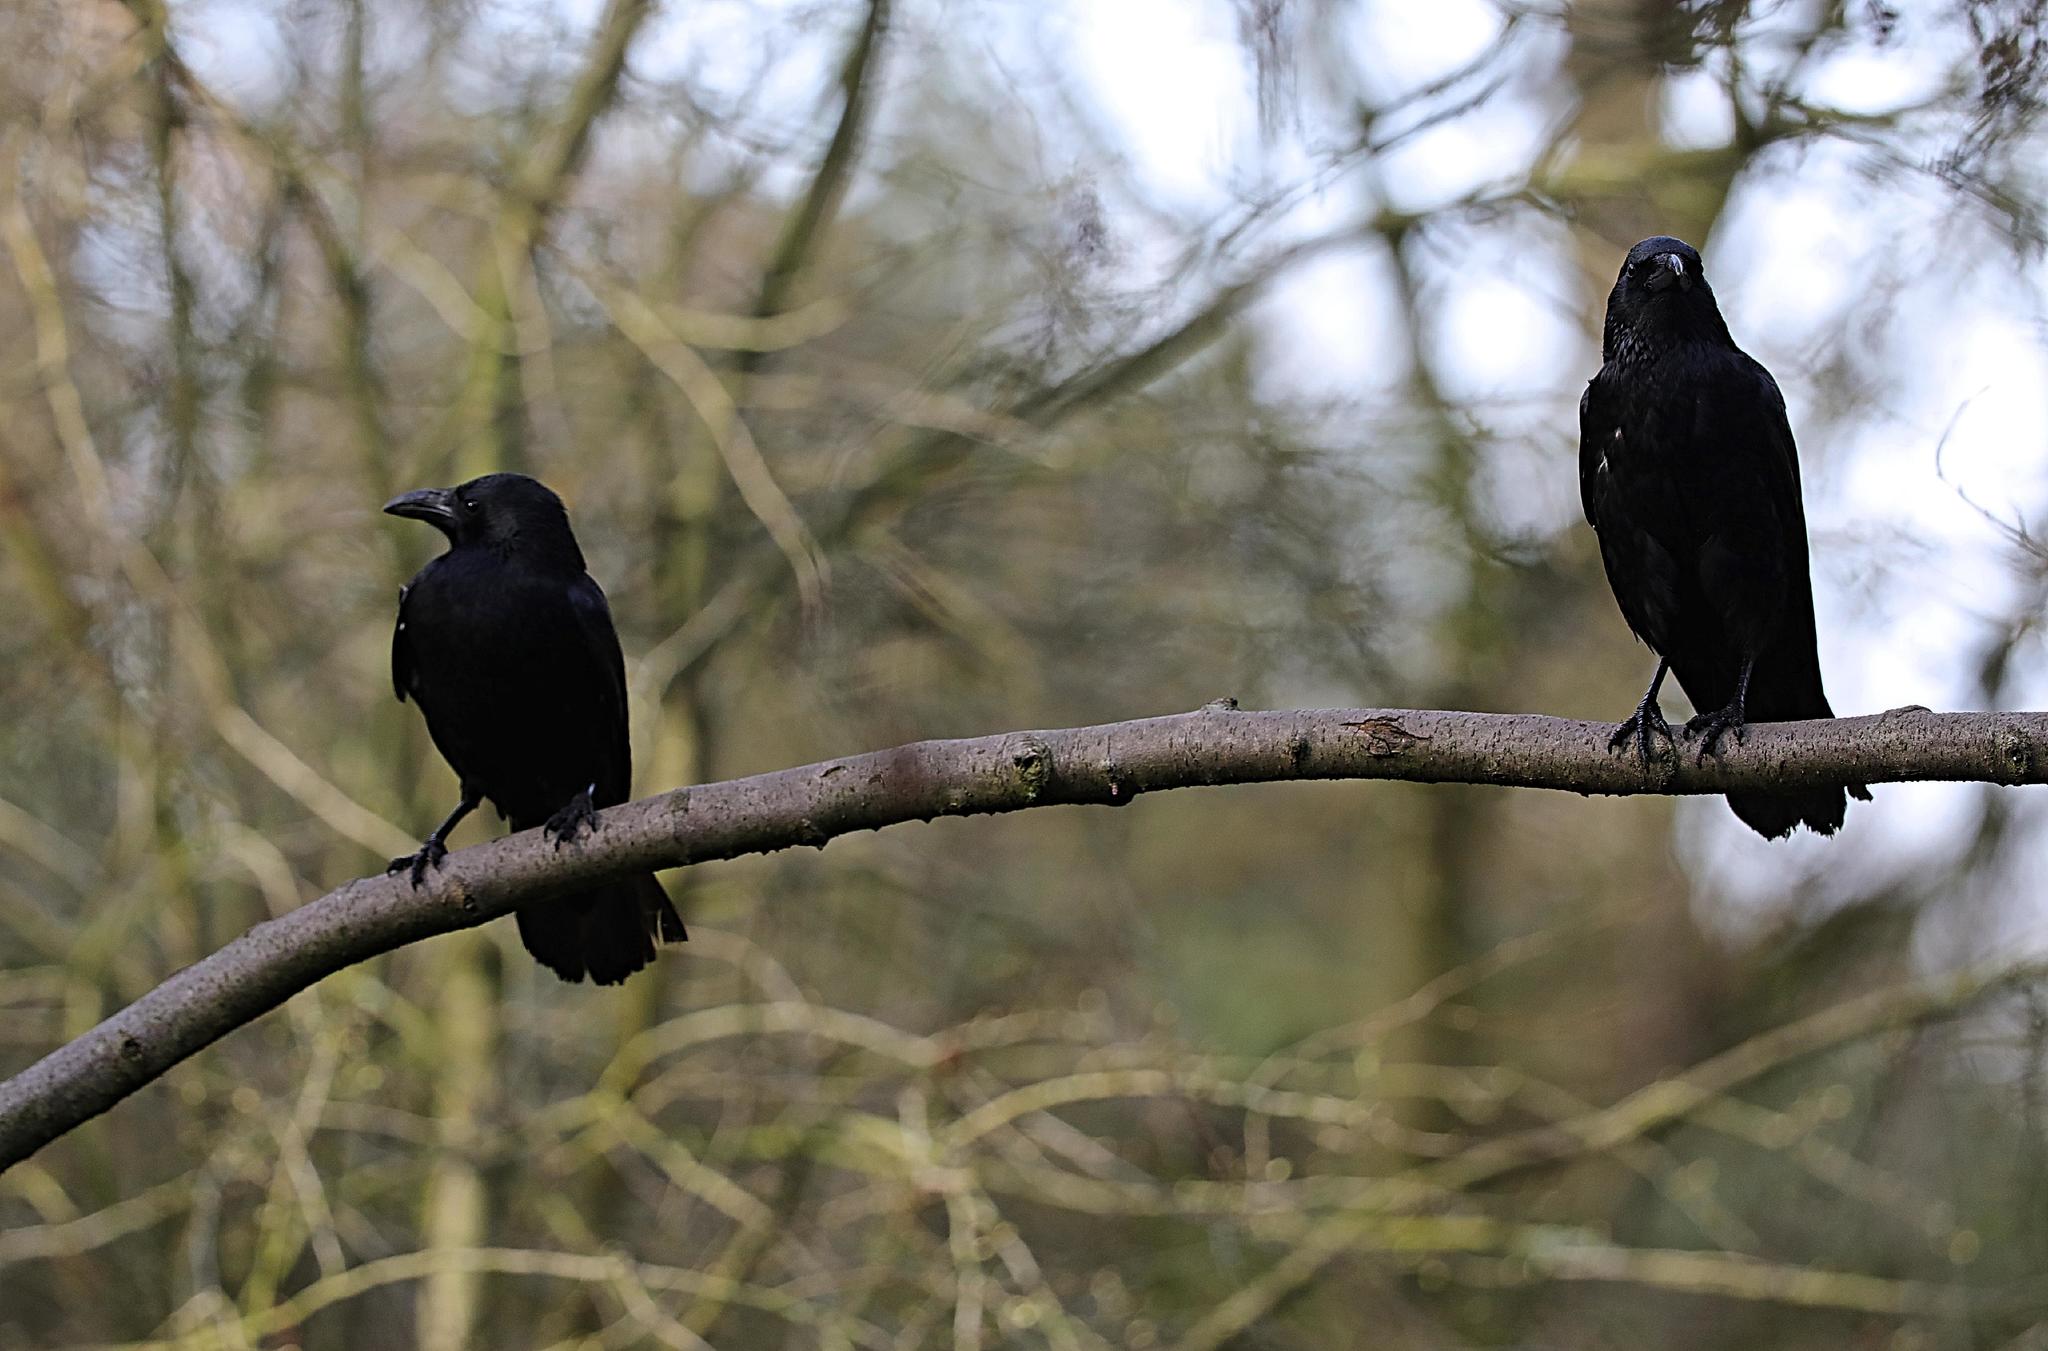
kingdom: Animalia
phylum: Chordata
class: Aves
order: Passeriformes
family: Corvidae
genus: Corvus
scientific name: Corvus corone
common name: Carrion crow
